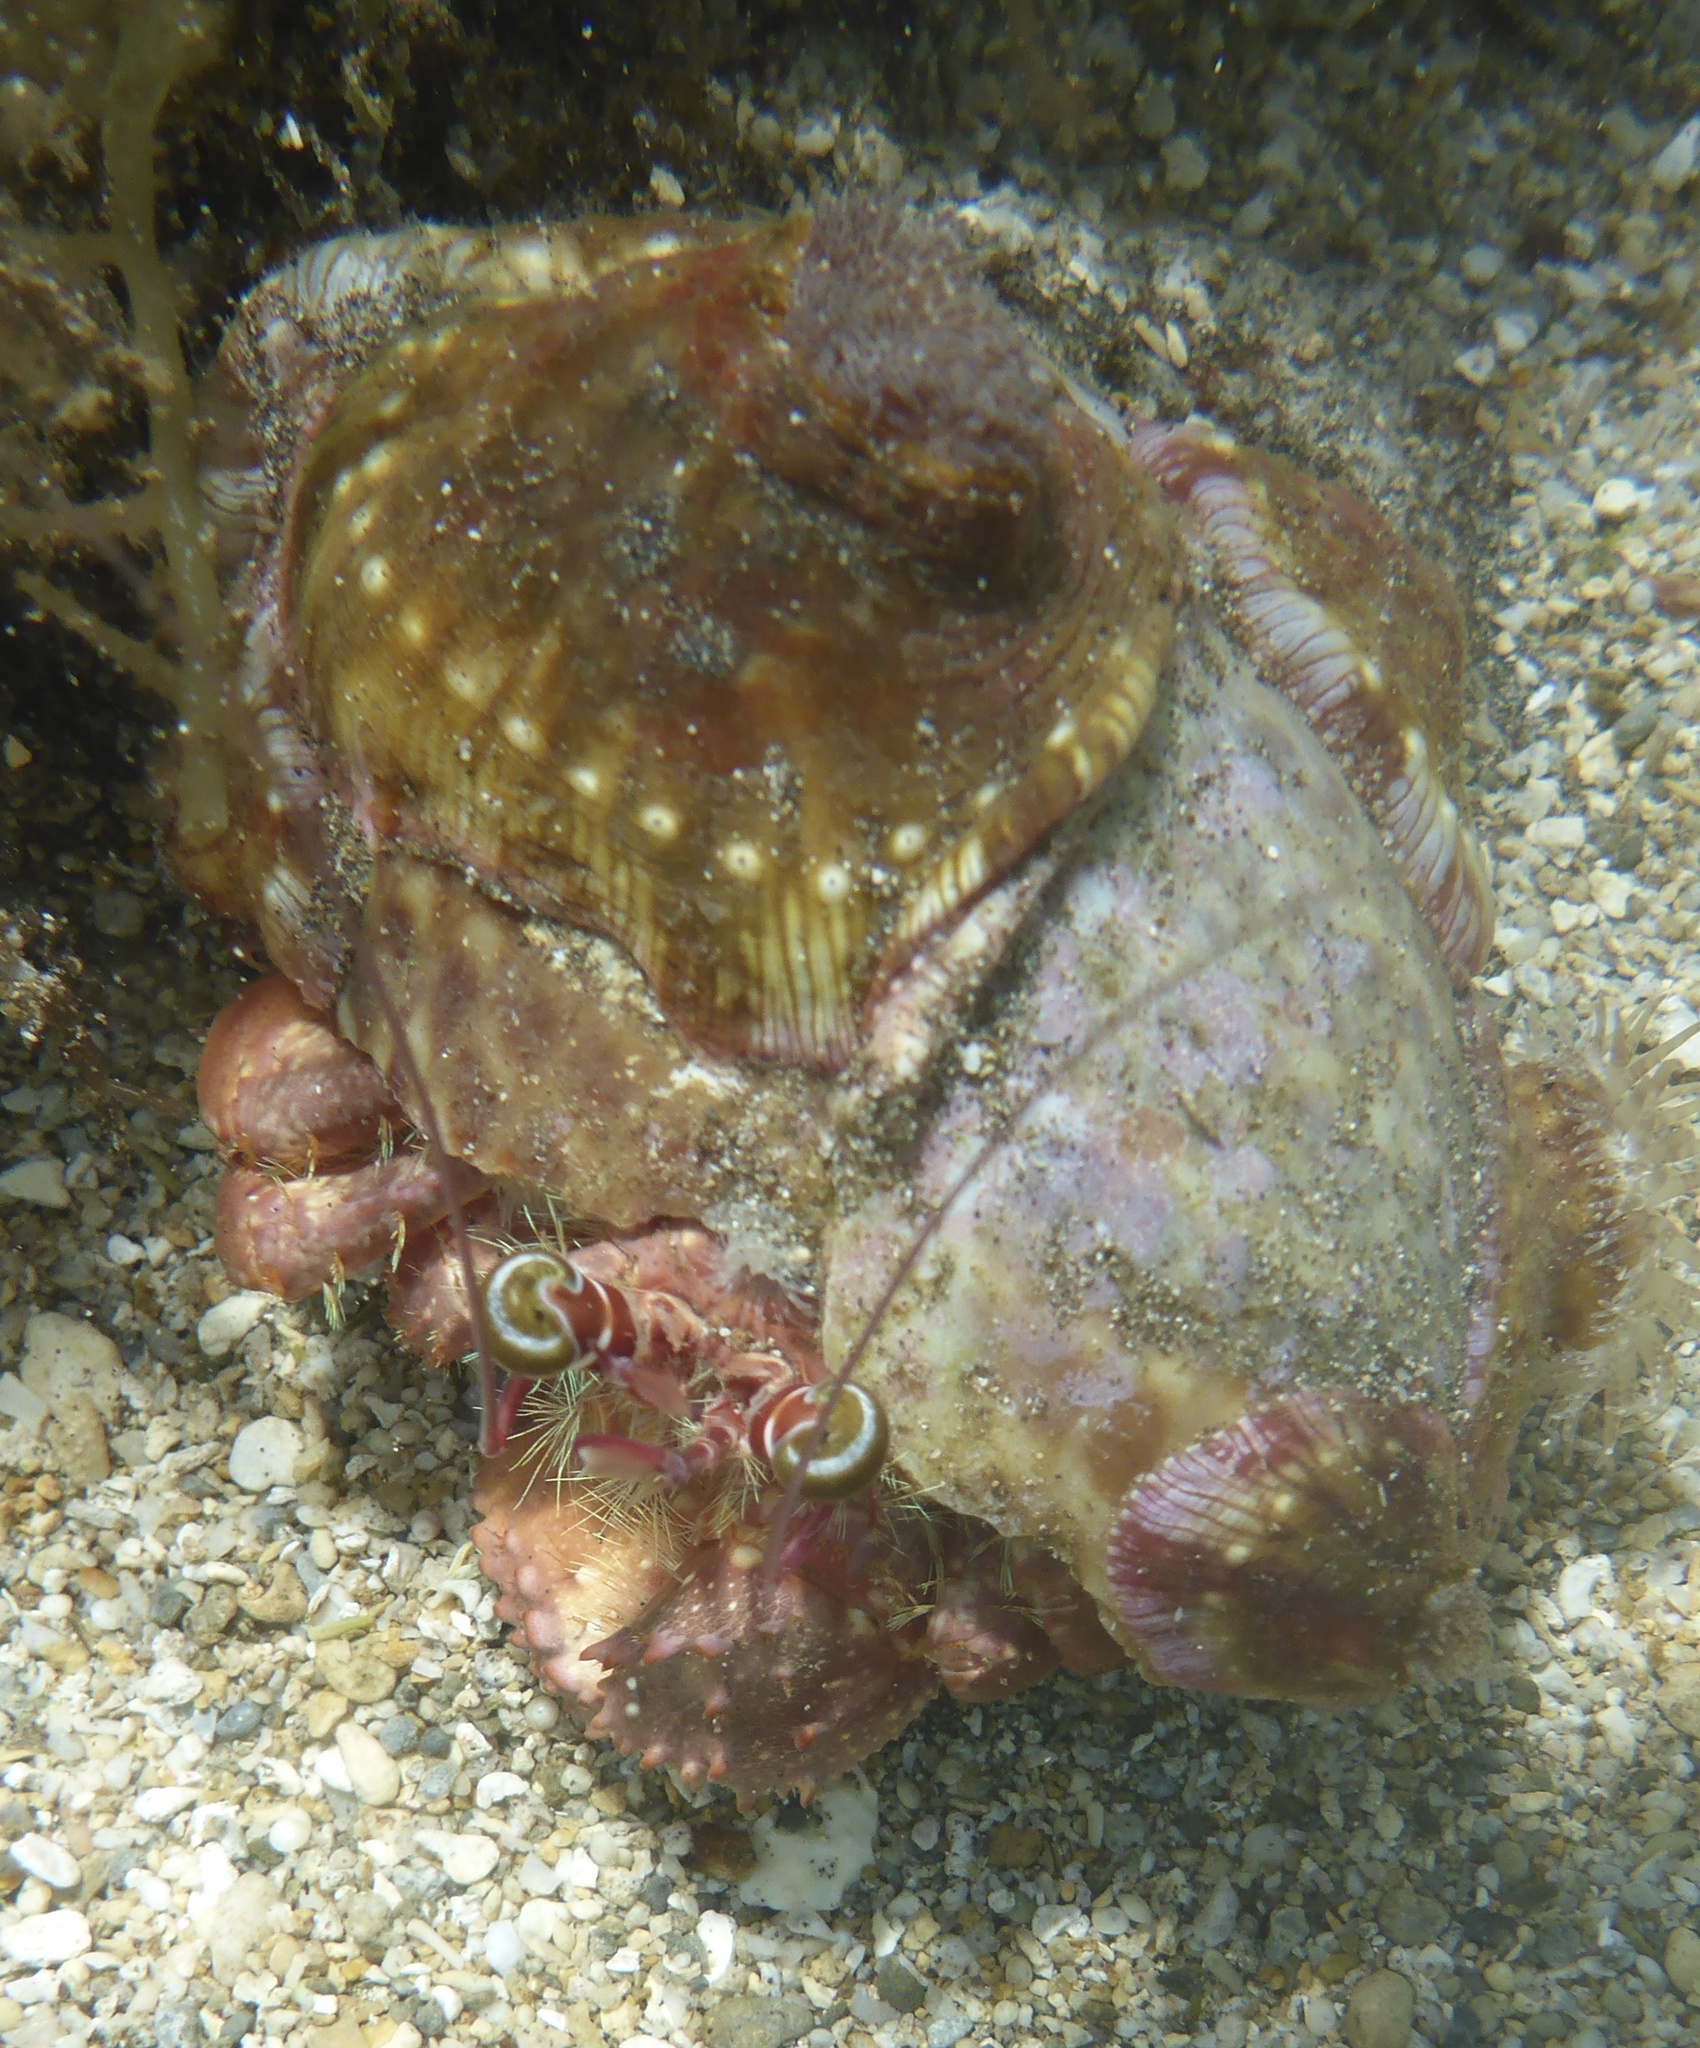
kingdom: Animalia
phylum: Arthropoda
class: Malacostraca
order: Decapoda
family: Diogenidae
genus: Dardanus
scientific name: Dardanus gemmatus
